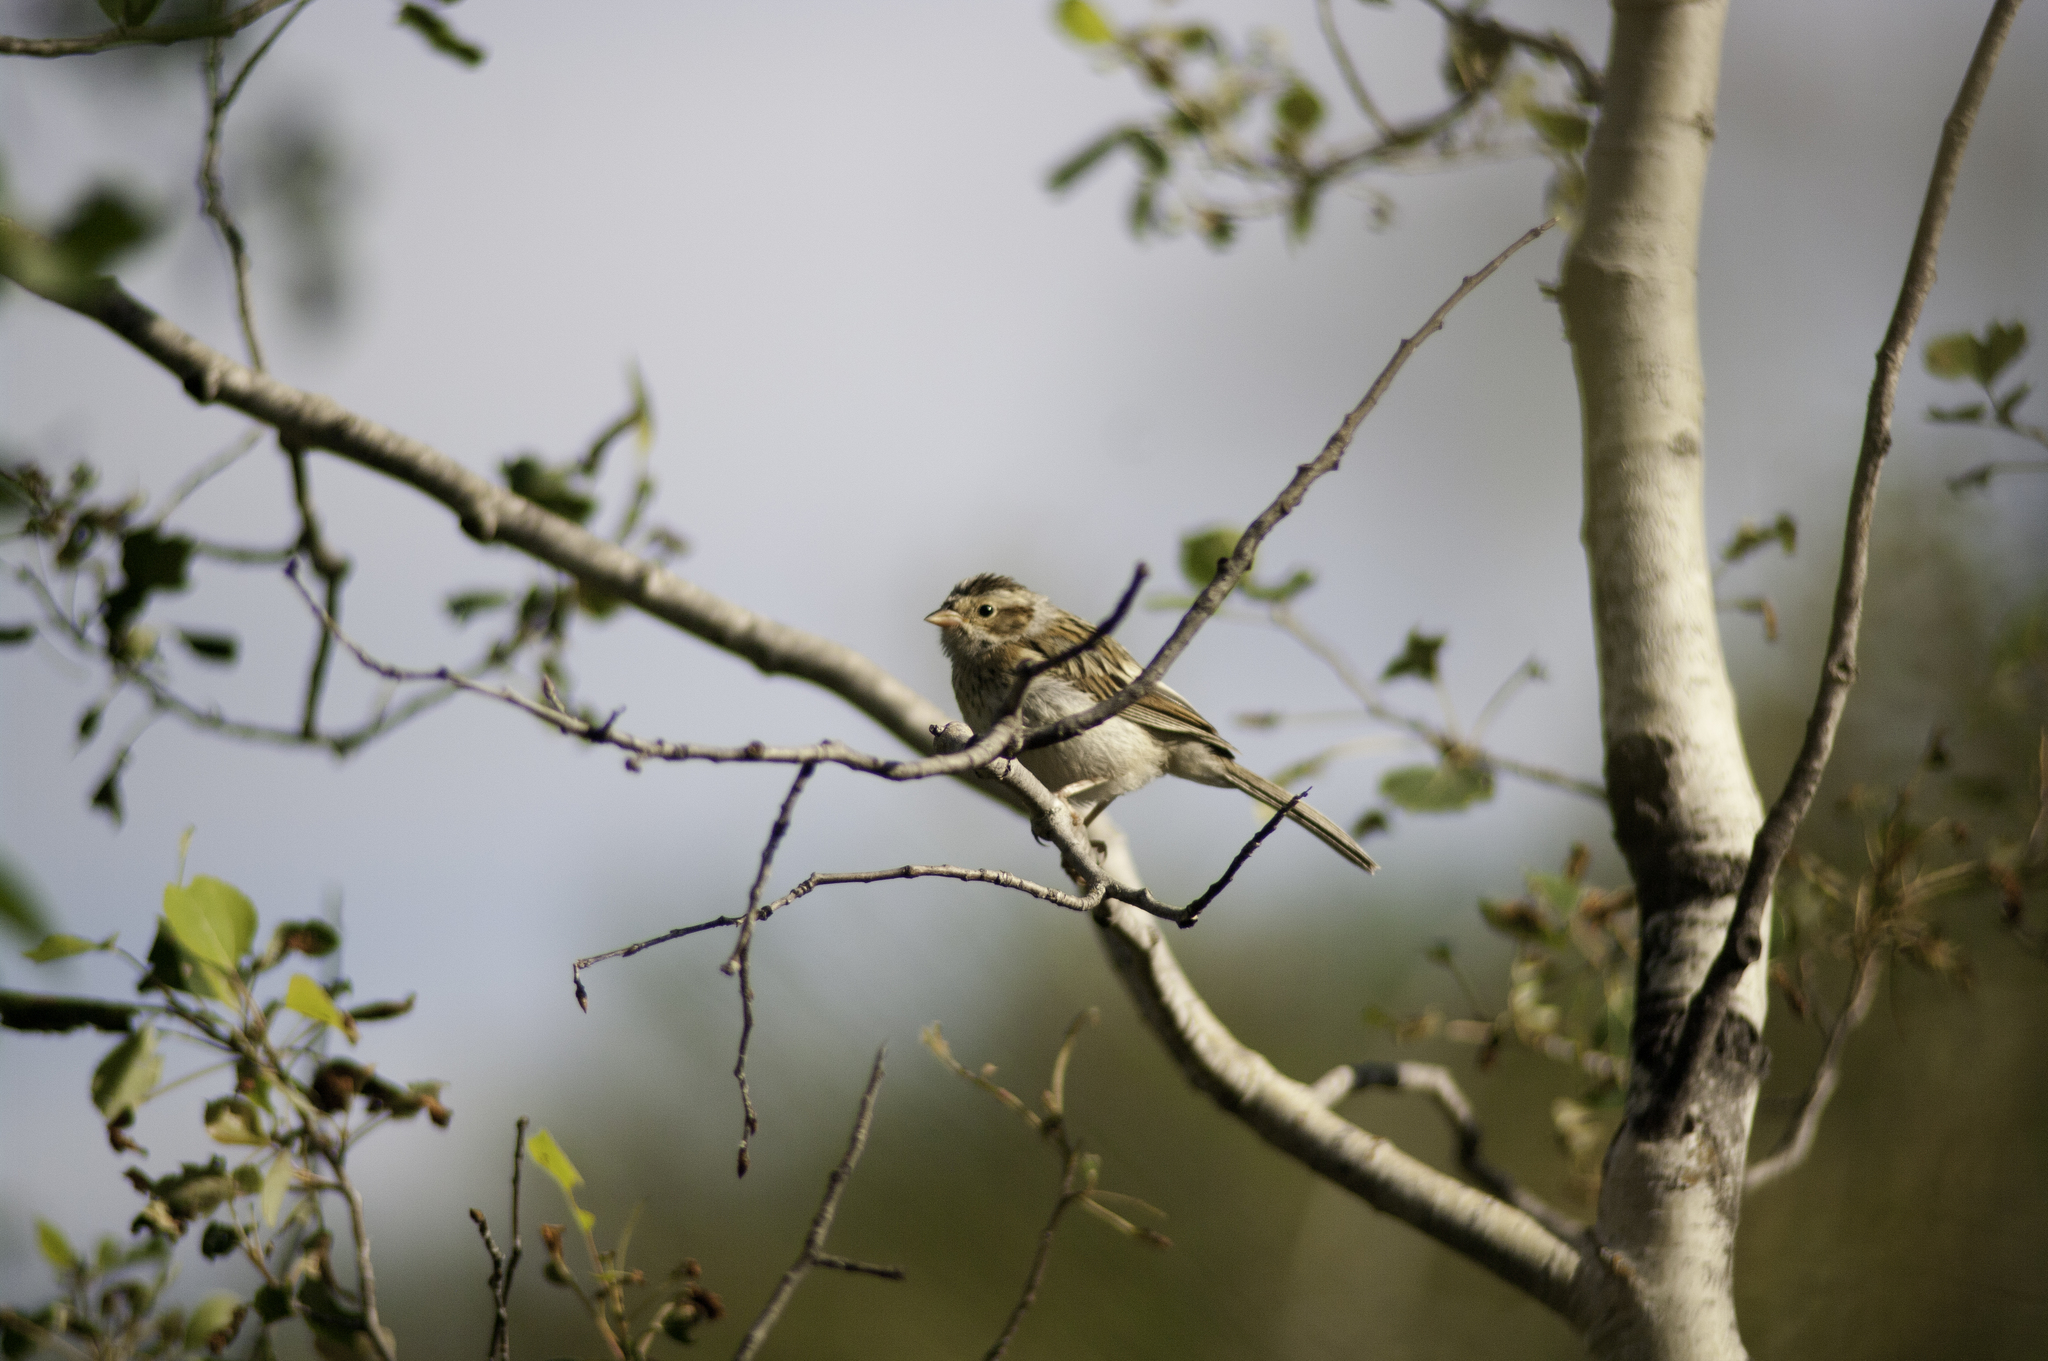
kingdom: Animalia
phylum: Chordata
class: Aves
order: Passeriformes
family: Passerellidae
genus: Spizella
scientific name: Spizella pallida
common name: Clay-colored sparrow
